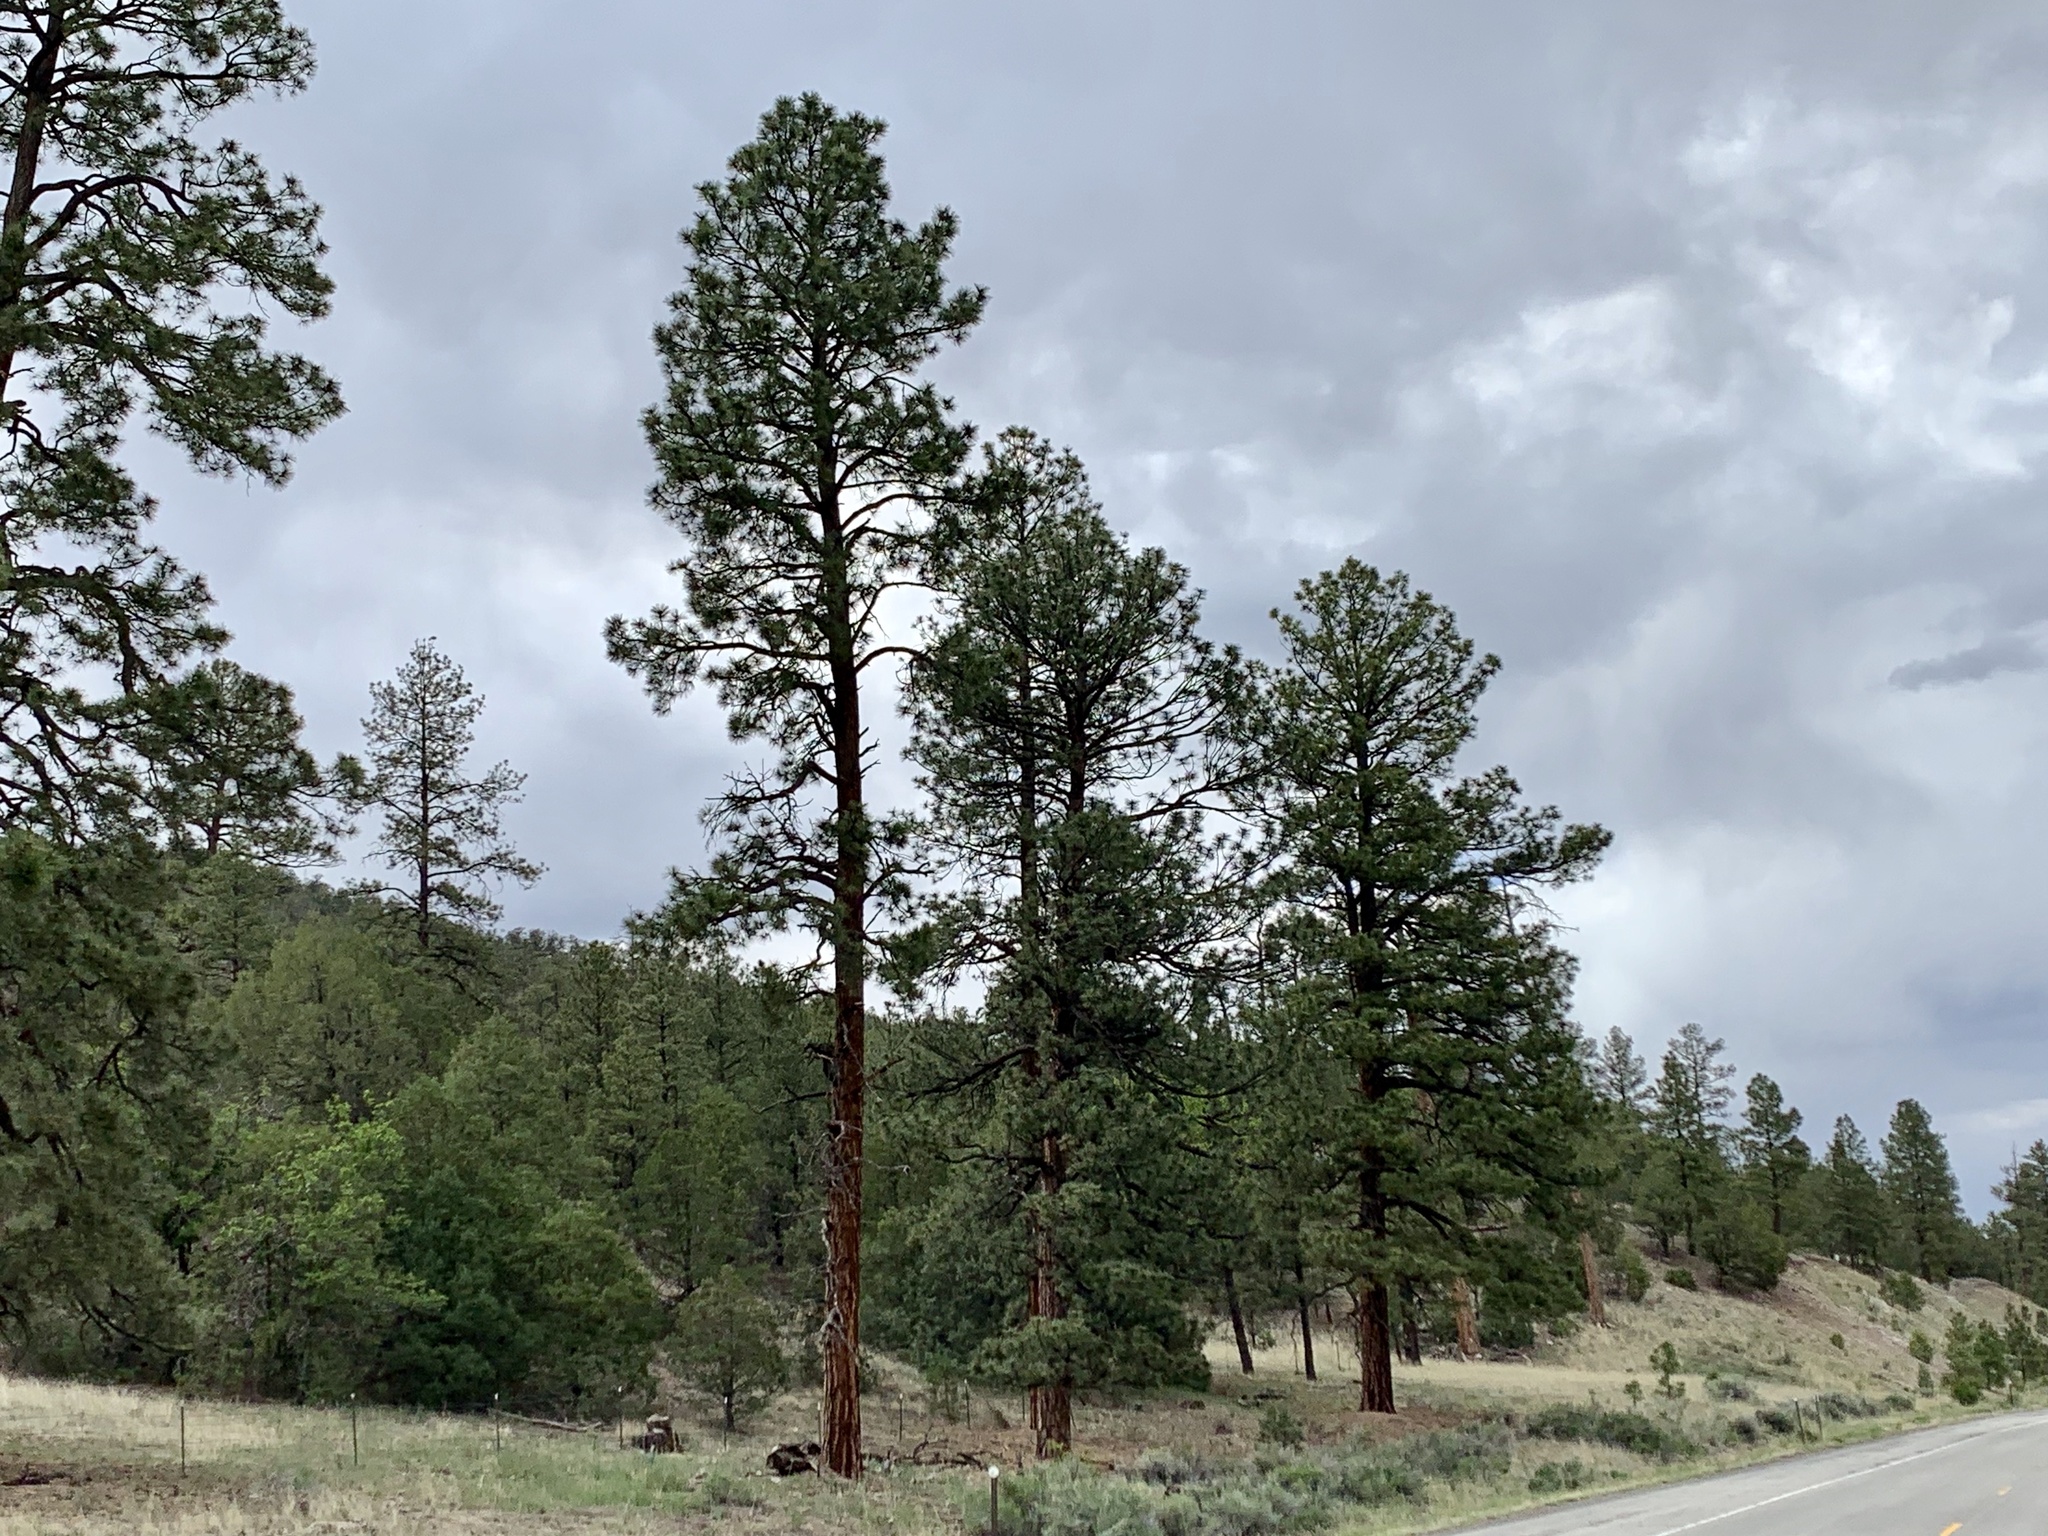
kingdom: Plantae
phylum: Tracheophyta
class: Pinopsida
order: Pinales
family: Pinaceae
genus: Pinus
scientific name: Pinus ponderosa
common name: Western yellow-pine
